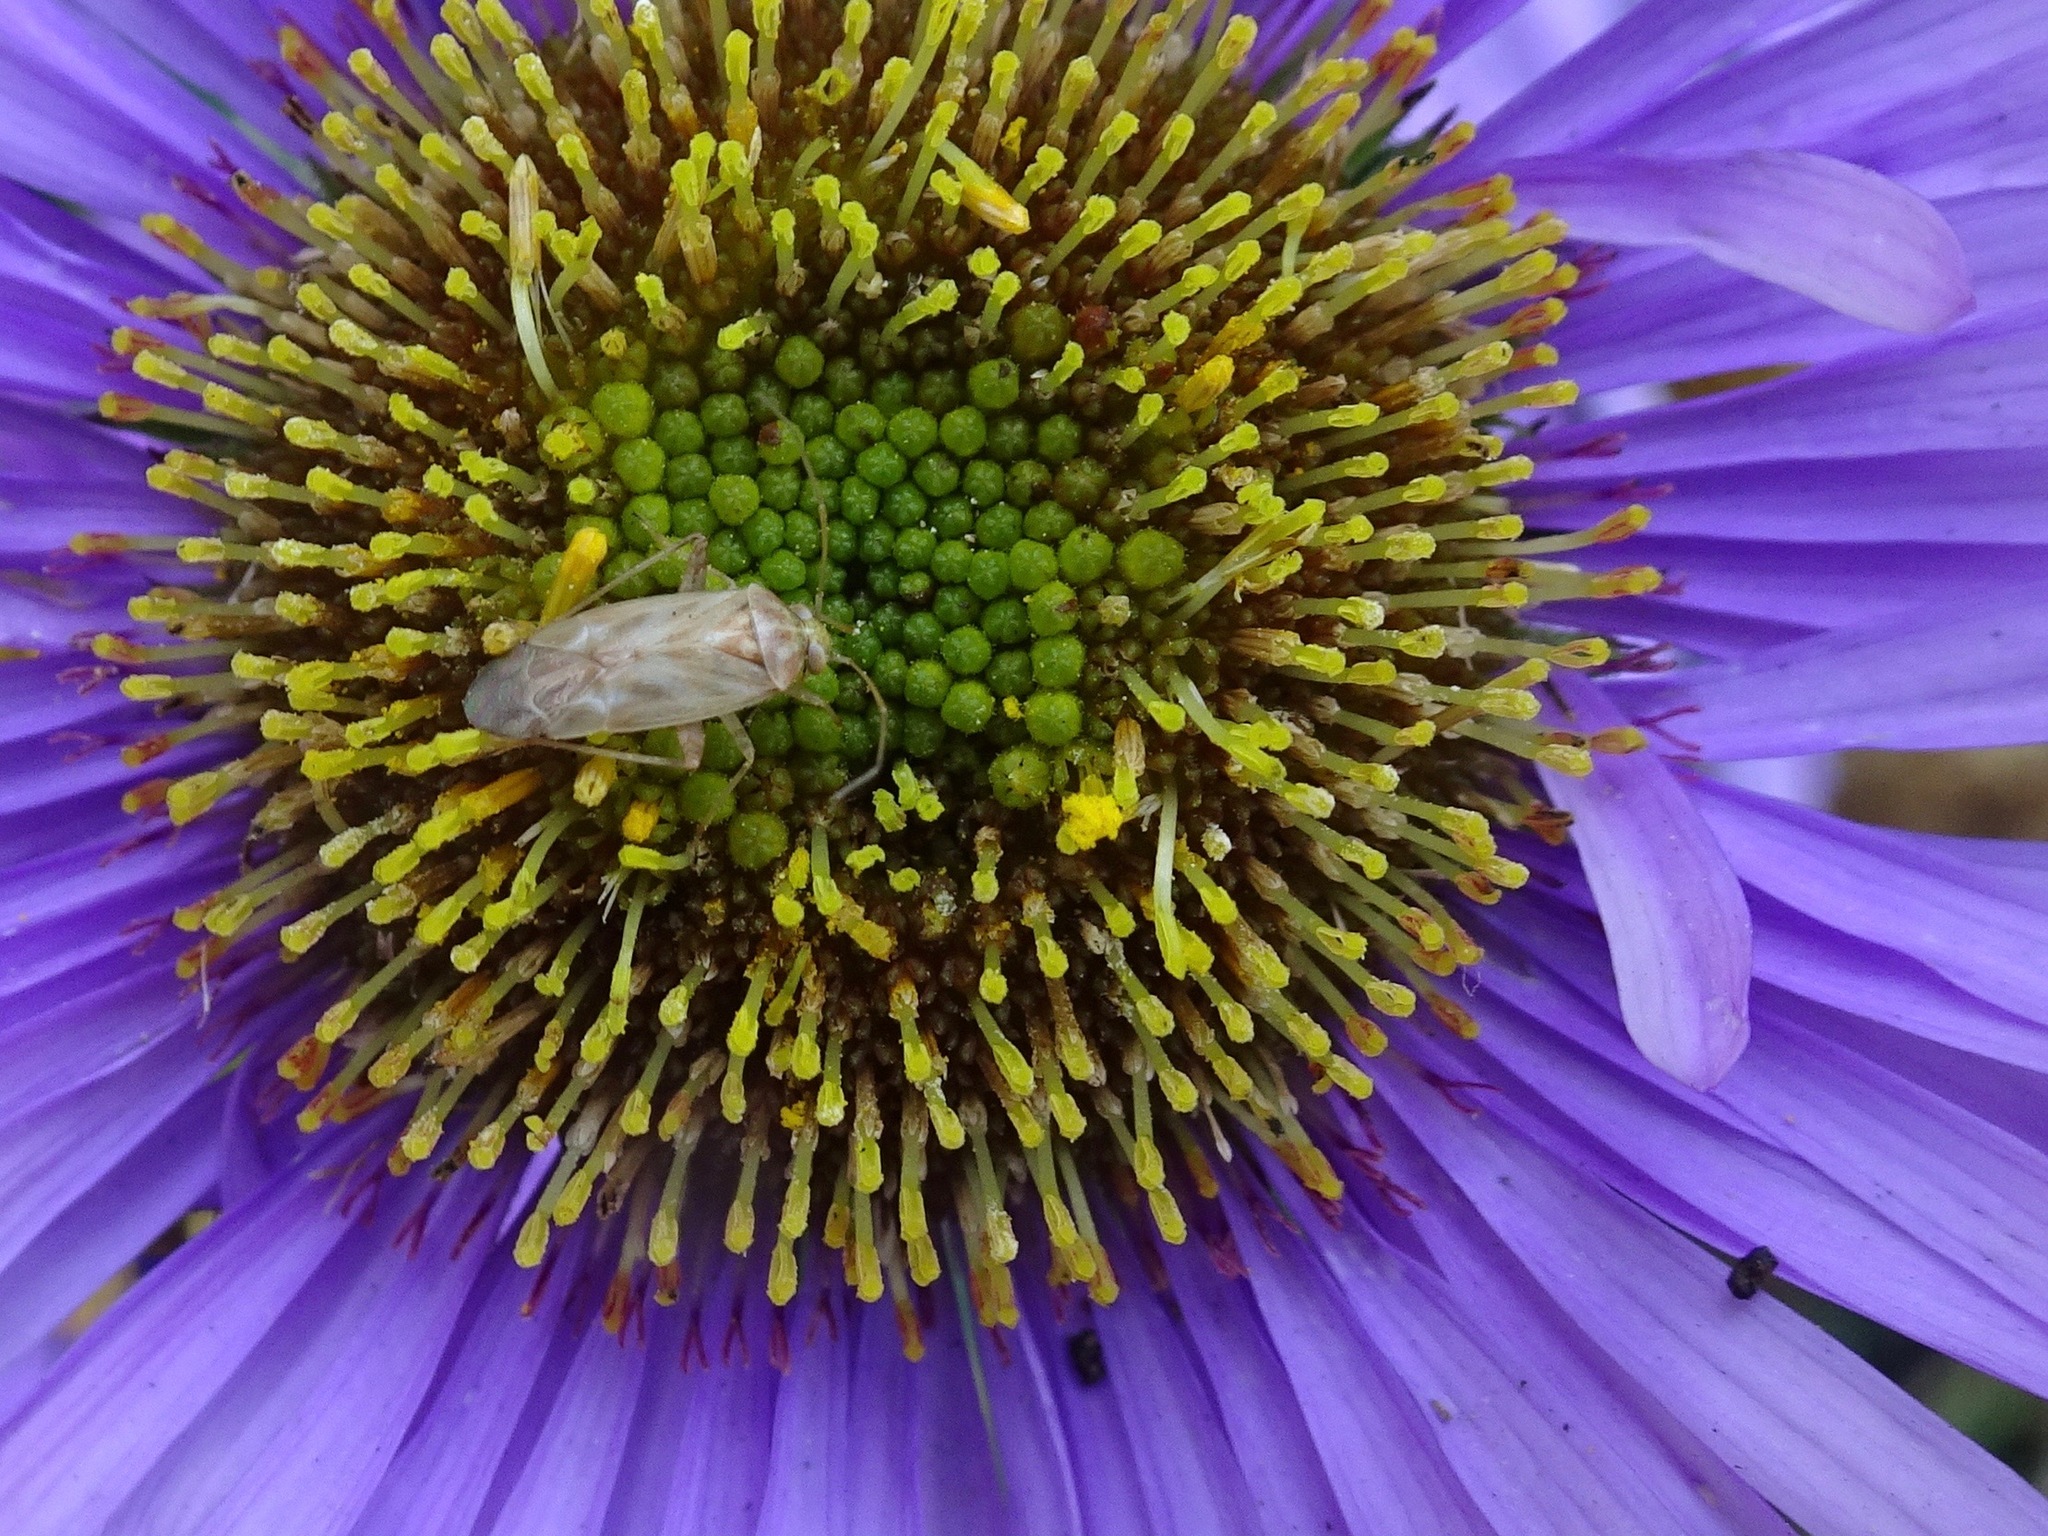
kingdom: Animalia
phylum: Arthropoda
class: Insecta
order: Hemiptera
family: Miridae
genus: Taylorilygus
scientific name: Taylorilygus apicalis
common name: Plant bug
